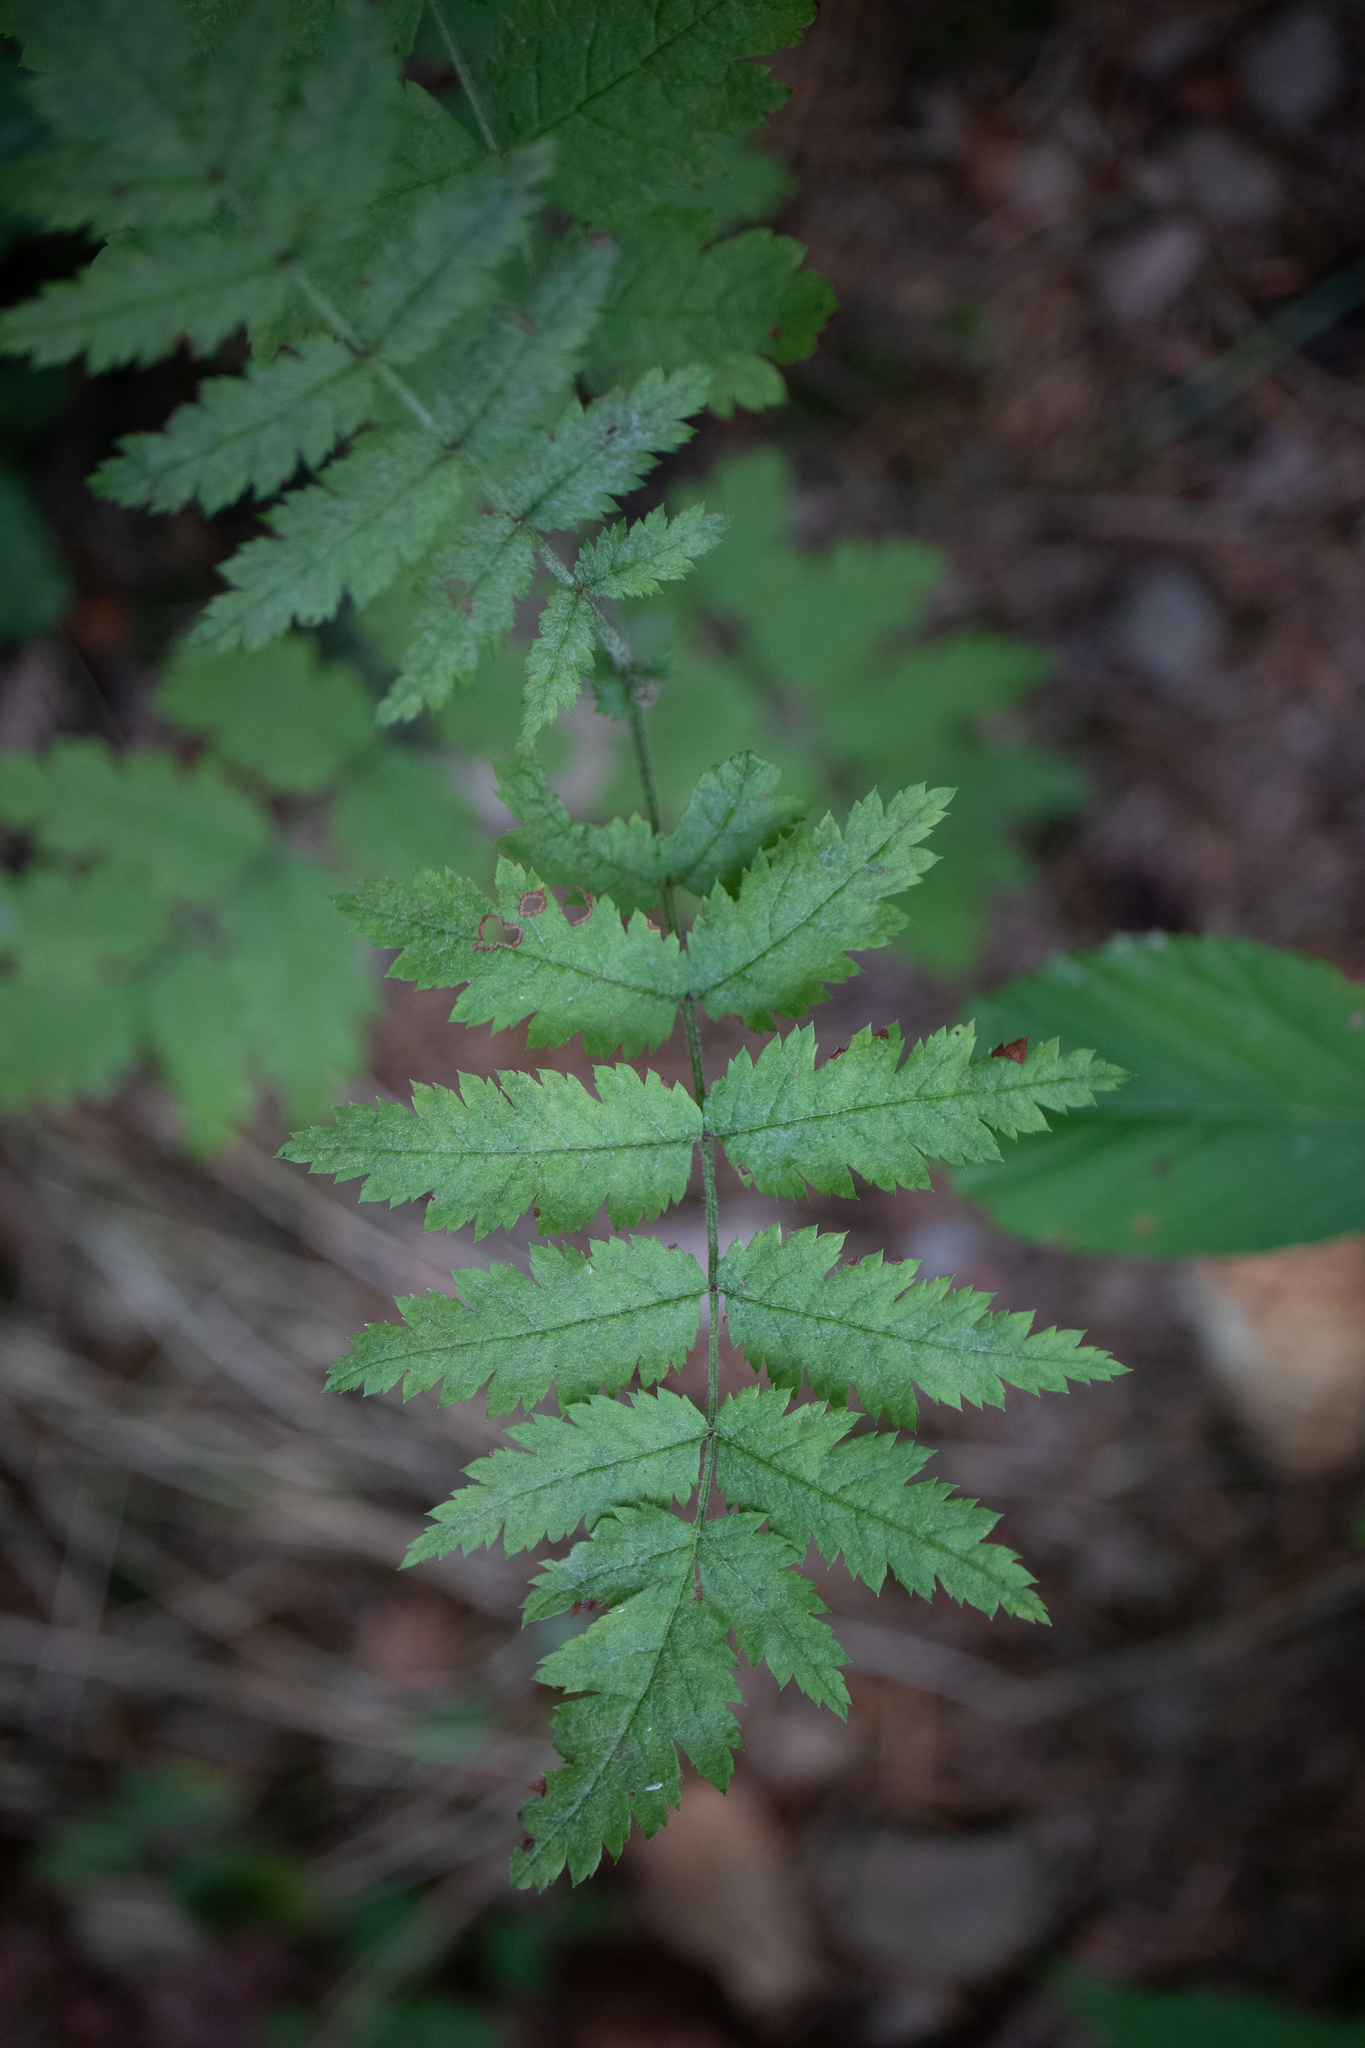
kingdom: Plantae
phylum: Tracheophyta
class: Magnoliopsida
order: Rosales
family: Rosaceae
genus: Sorbus
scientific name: Sorbus aucuparia
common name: Rowan
